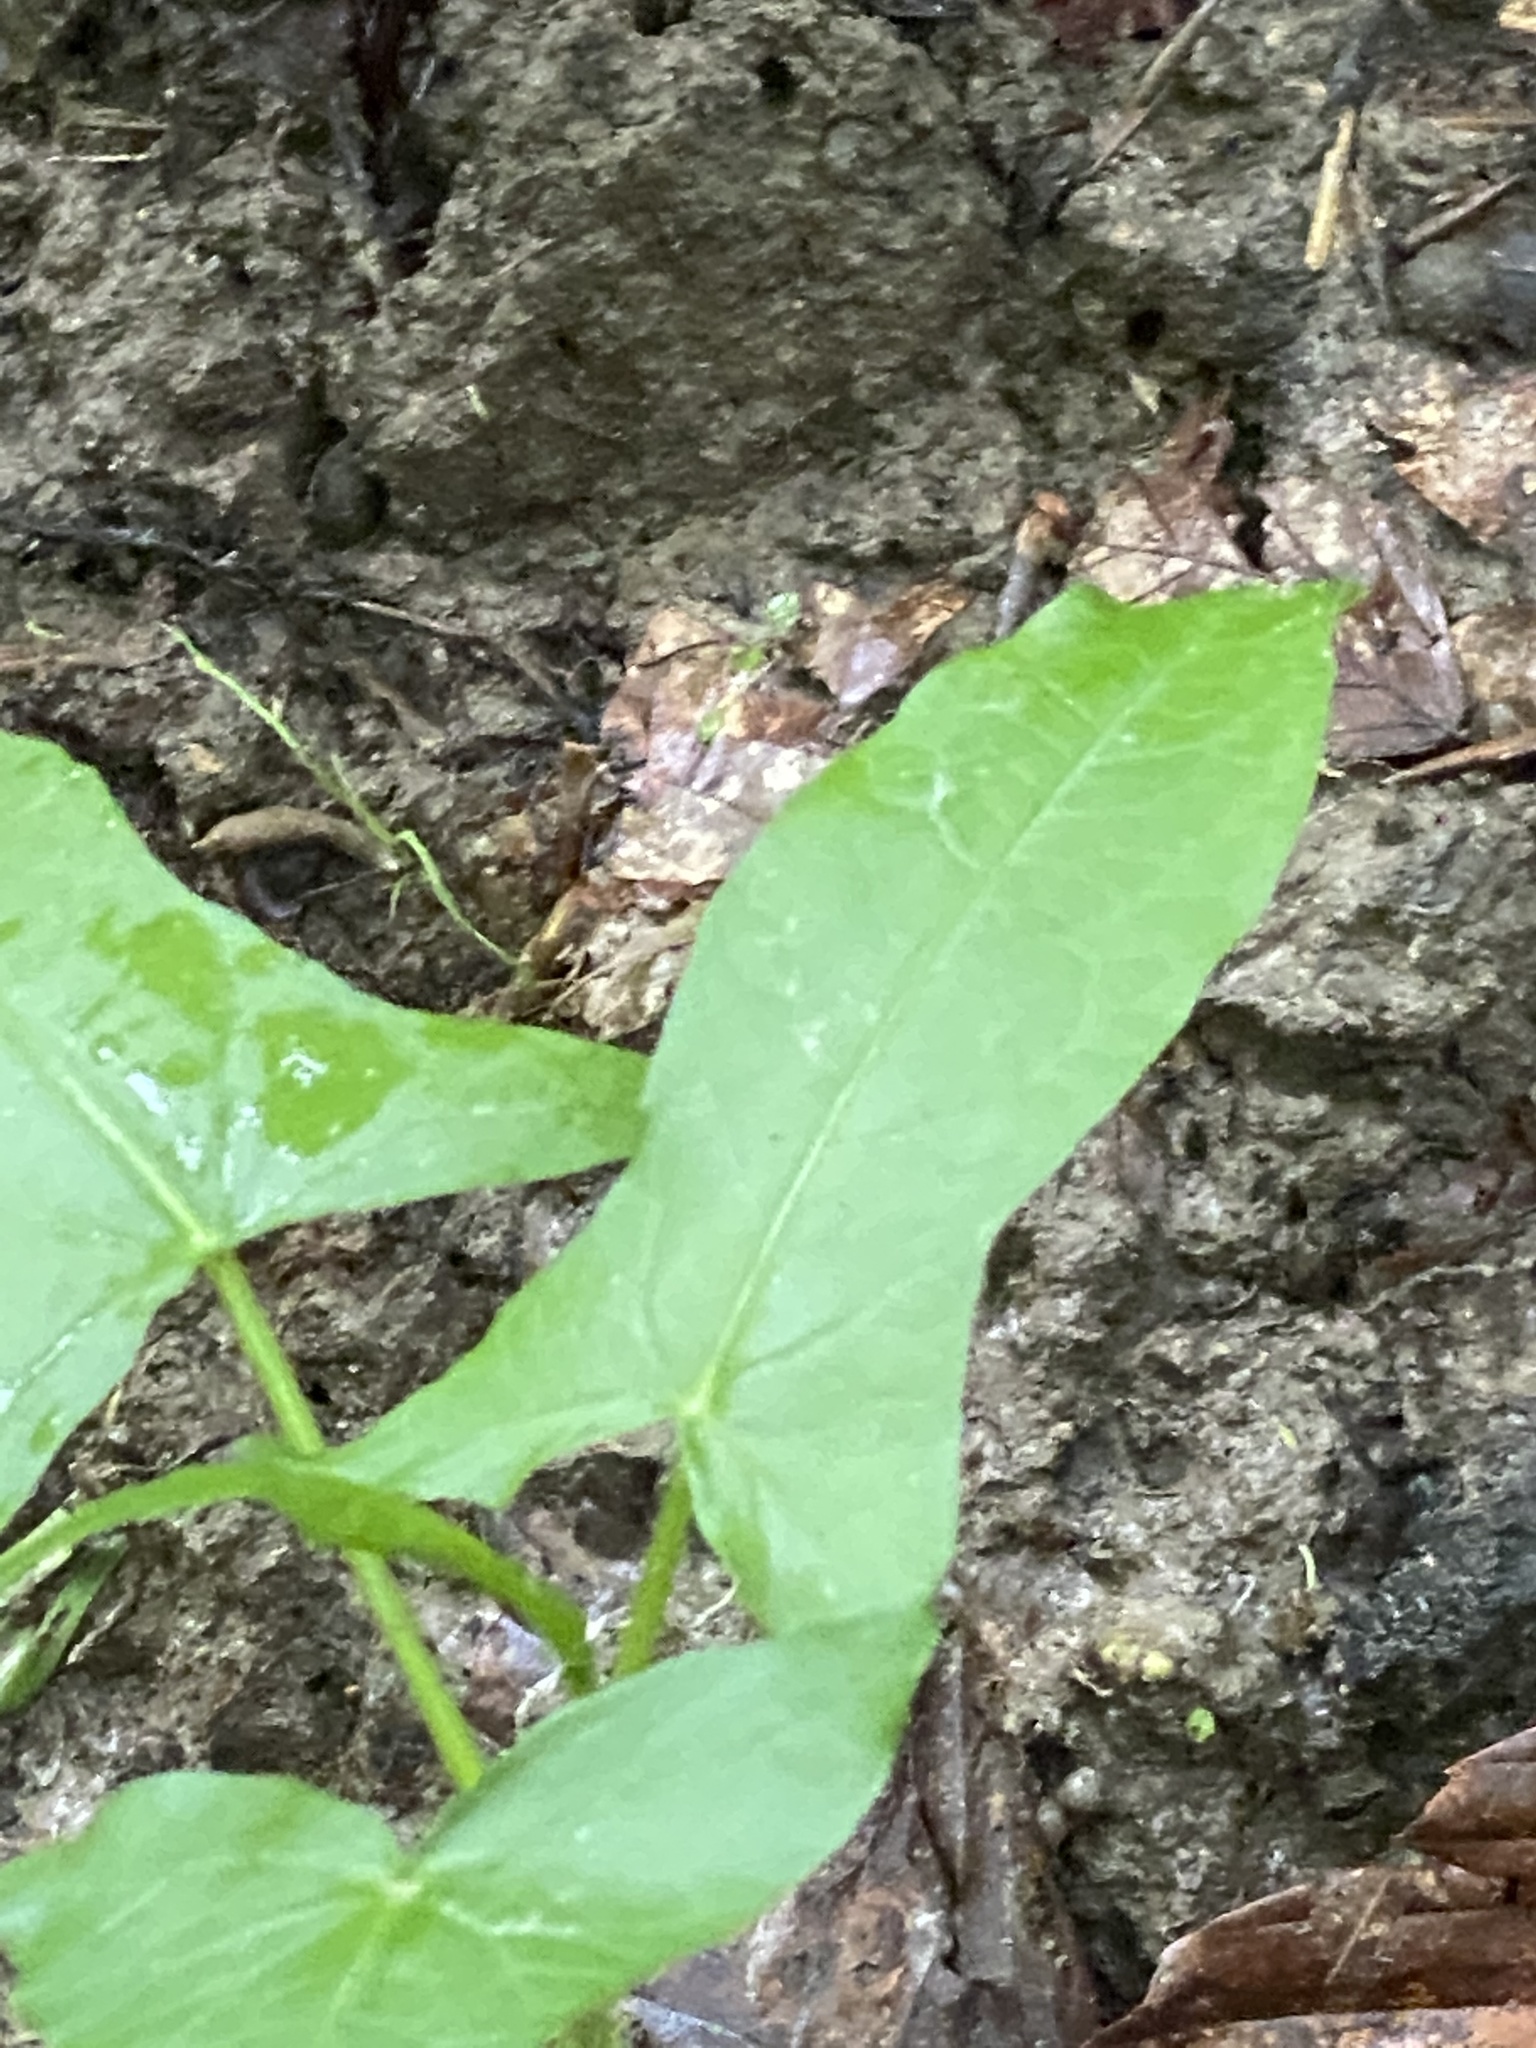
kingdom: Plantae
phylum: Tracheophyta
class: Magnoliopsida
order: Asterales
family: Asteraceae
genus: Nabalus
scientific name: Nabalus albus
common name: White rattlesnakeroot
